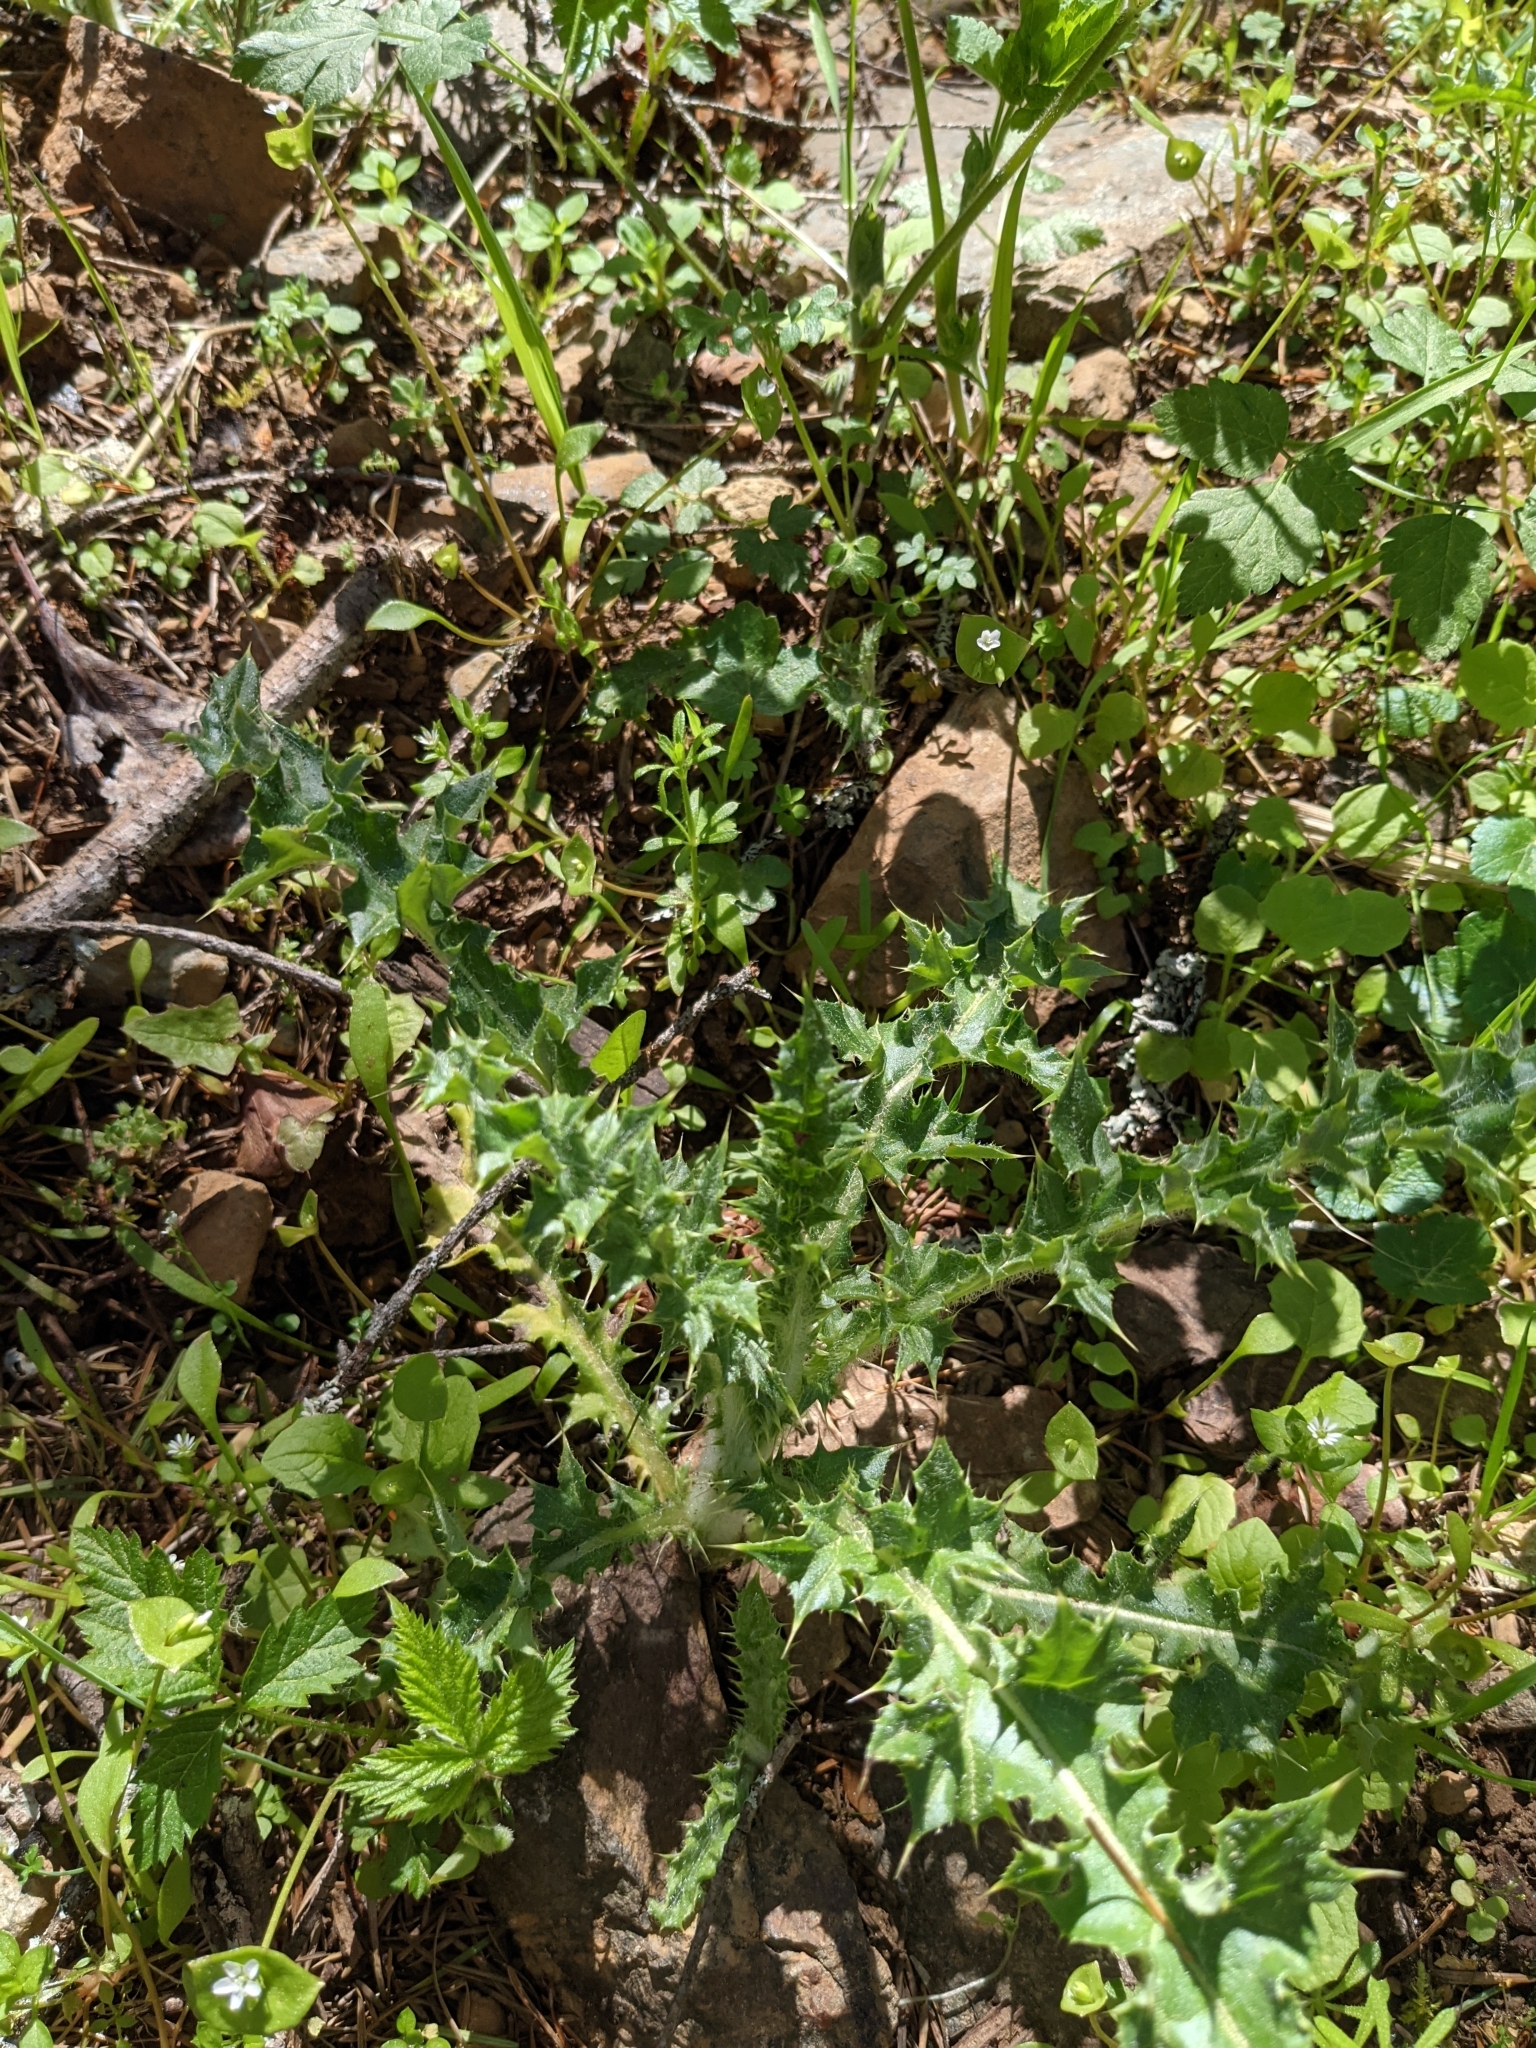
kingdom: Plantae
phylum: Tracheophyta
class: Magnoliopsida
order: Asterales
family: Asteraceae
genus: Cirsium
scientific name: Cirsium arvense
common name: Creeping thistle
